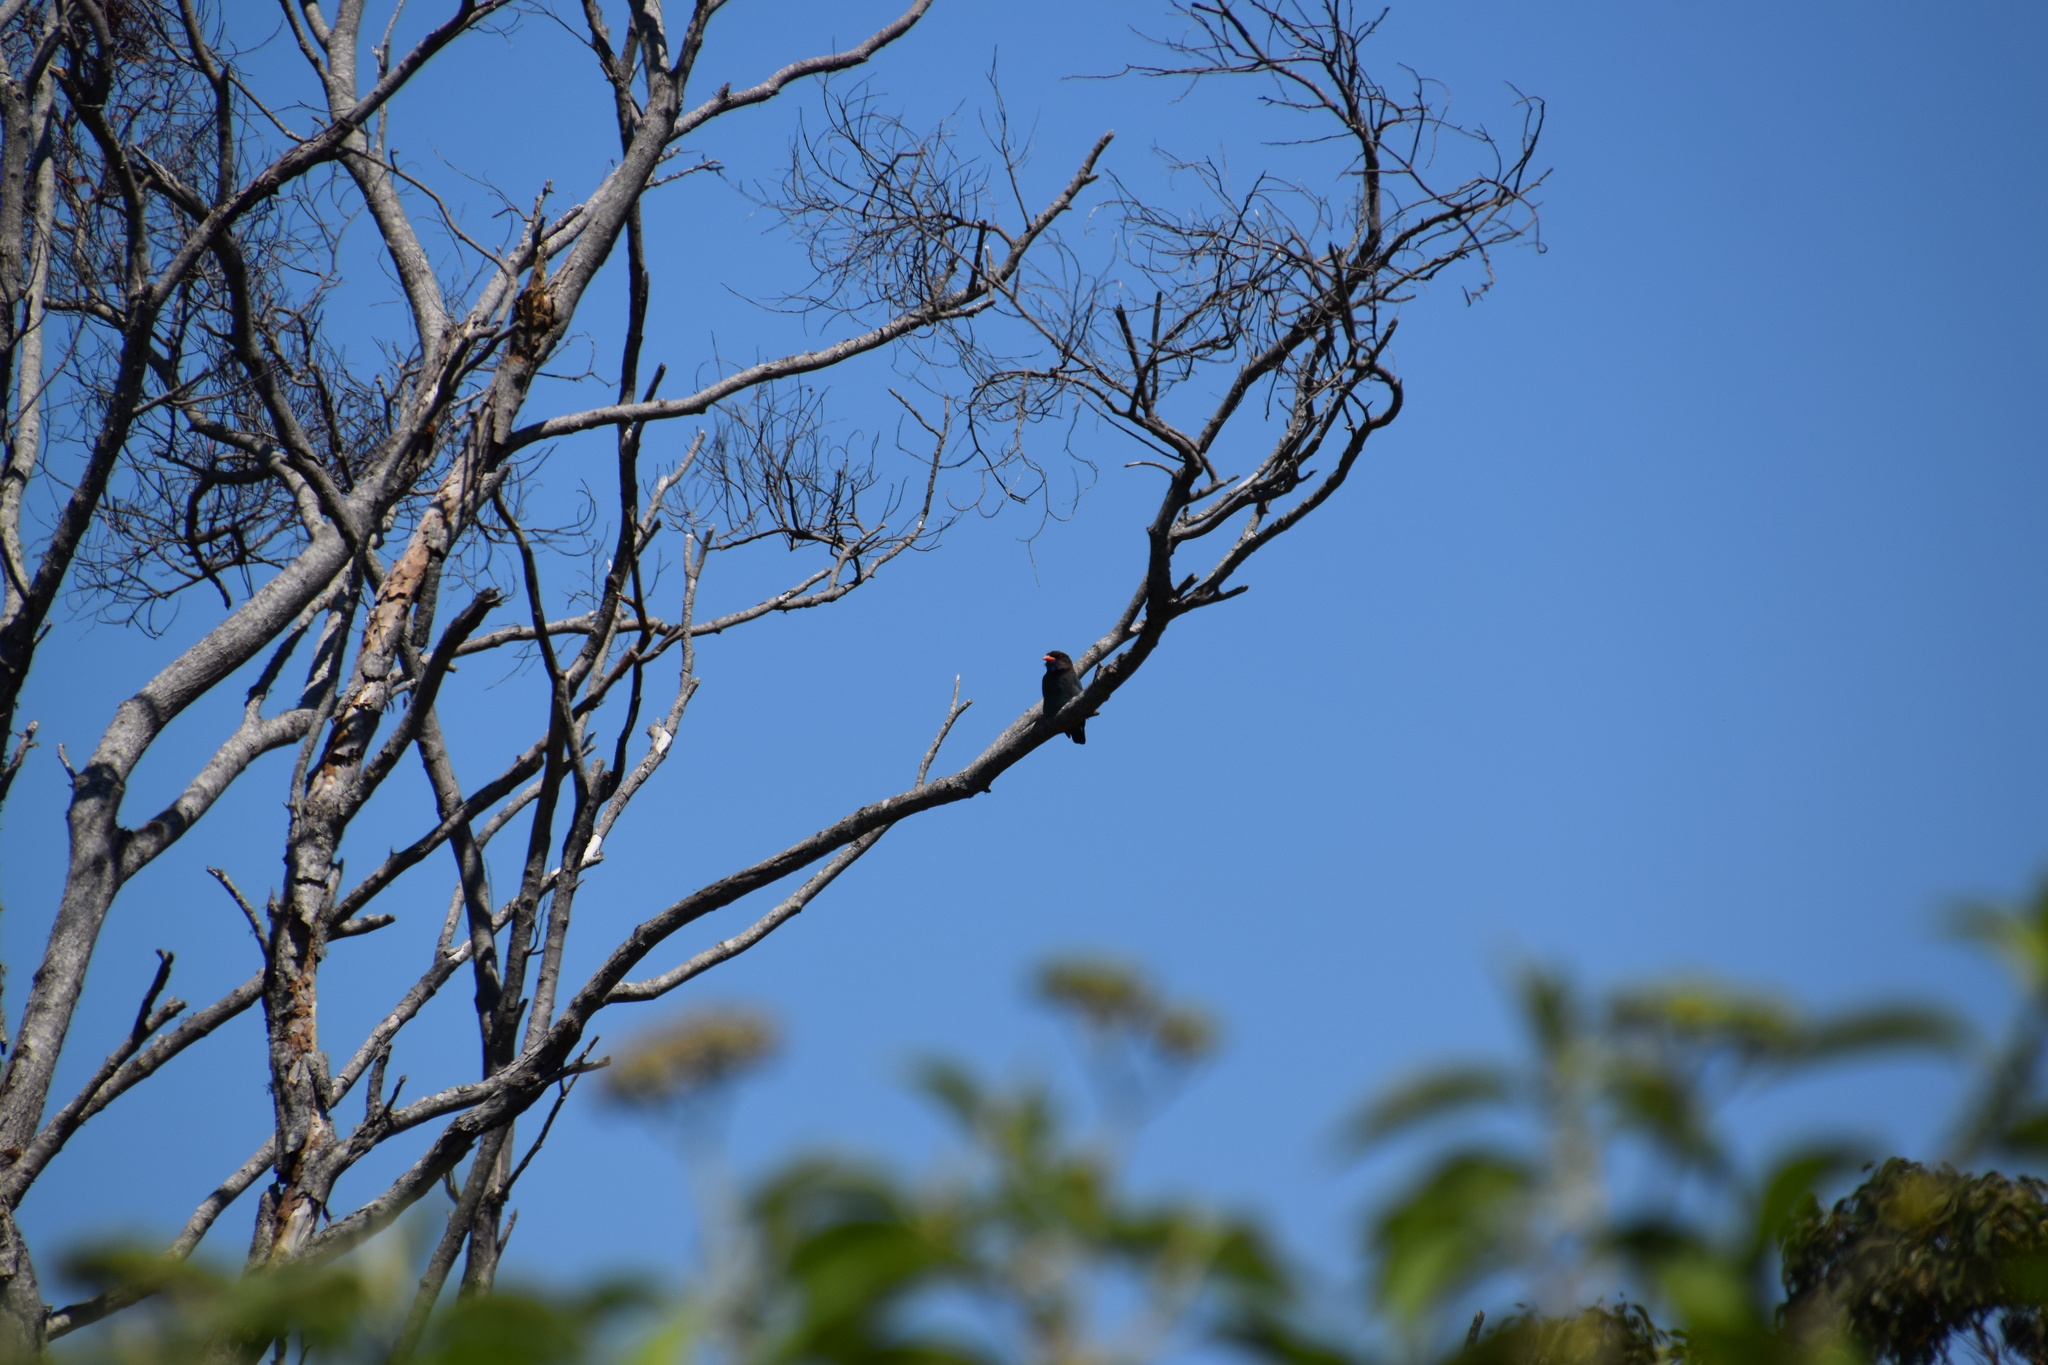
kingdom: Animalia
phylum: Chordata
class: Aves
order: Coraciiformes
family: Coraciidae
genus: Eurystomus
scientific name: Eurystomus orientalis
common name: Oriental dollarbird
